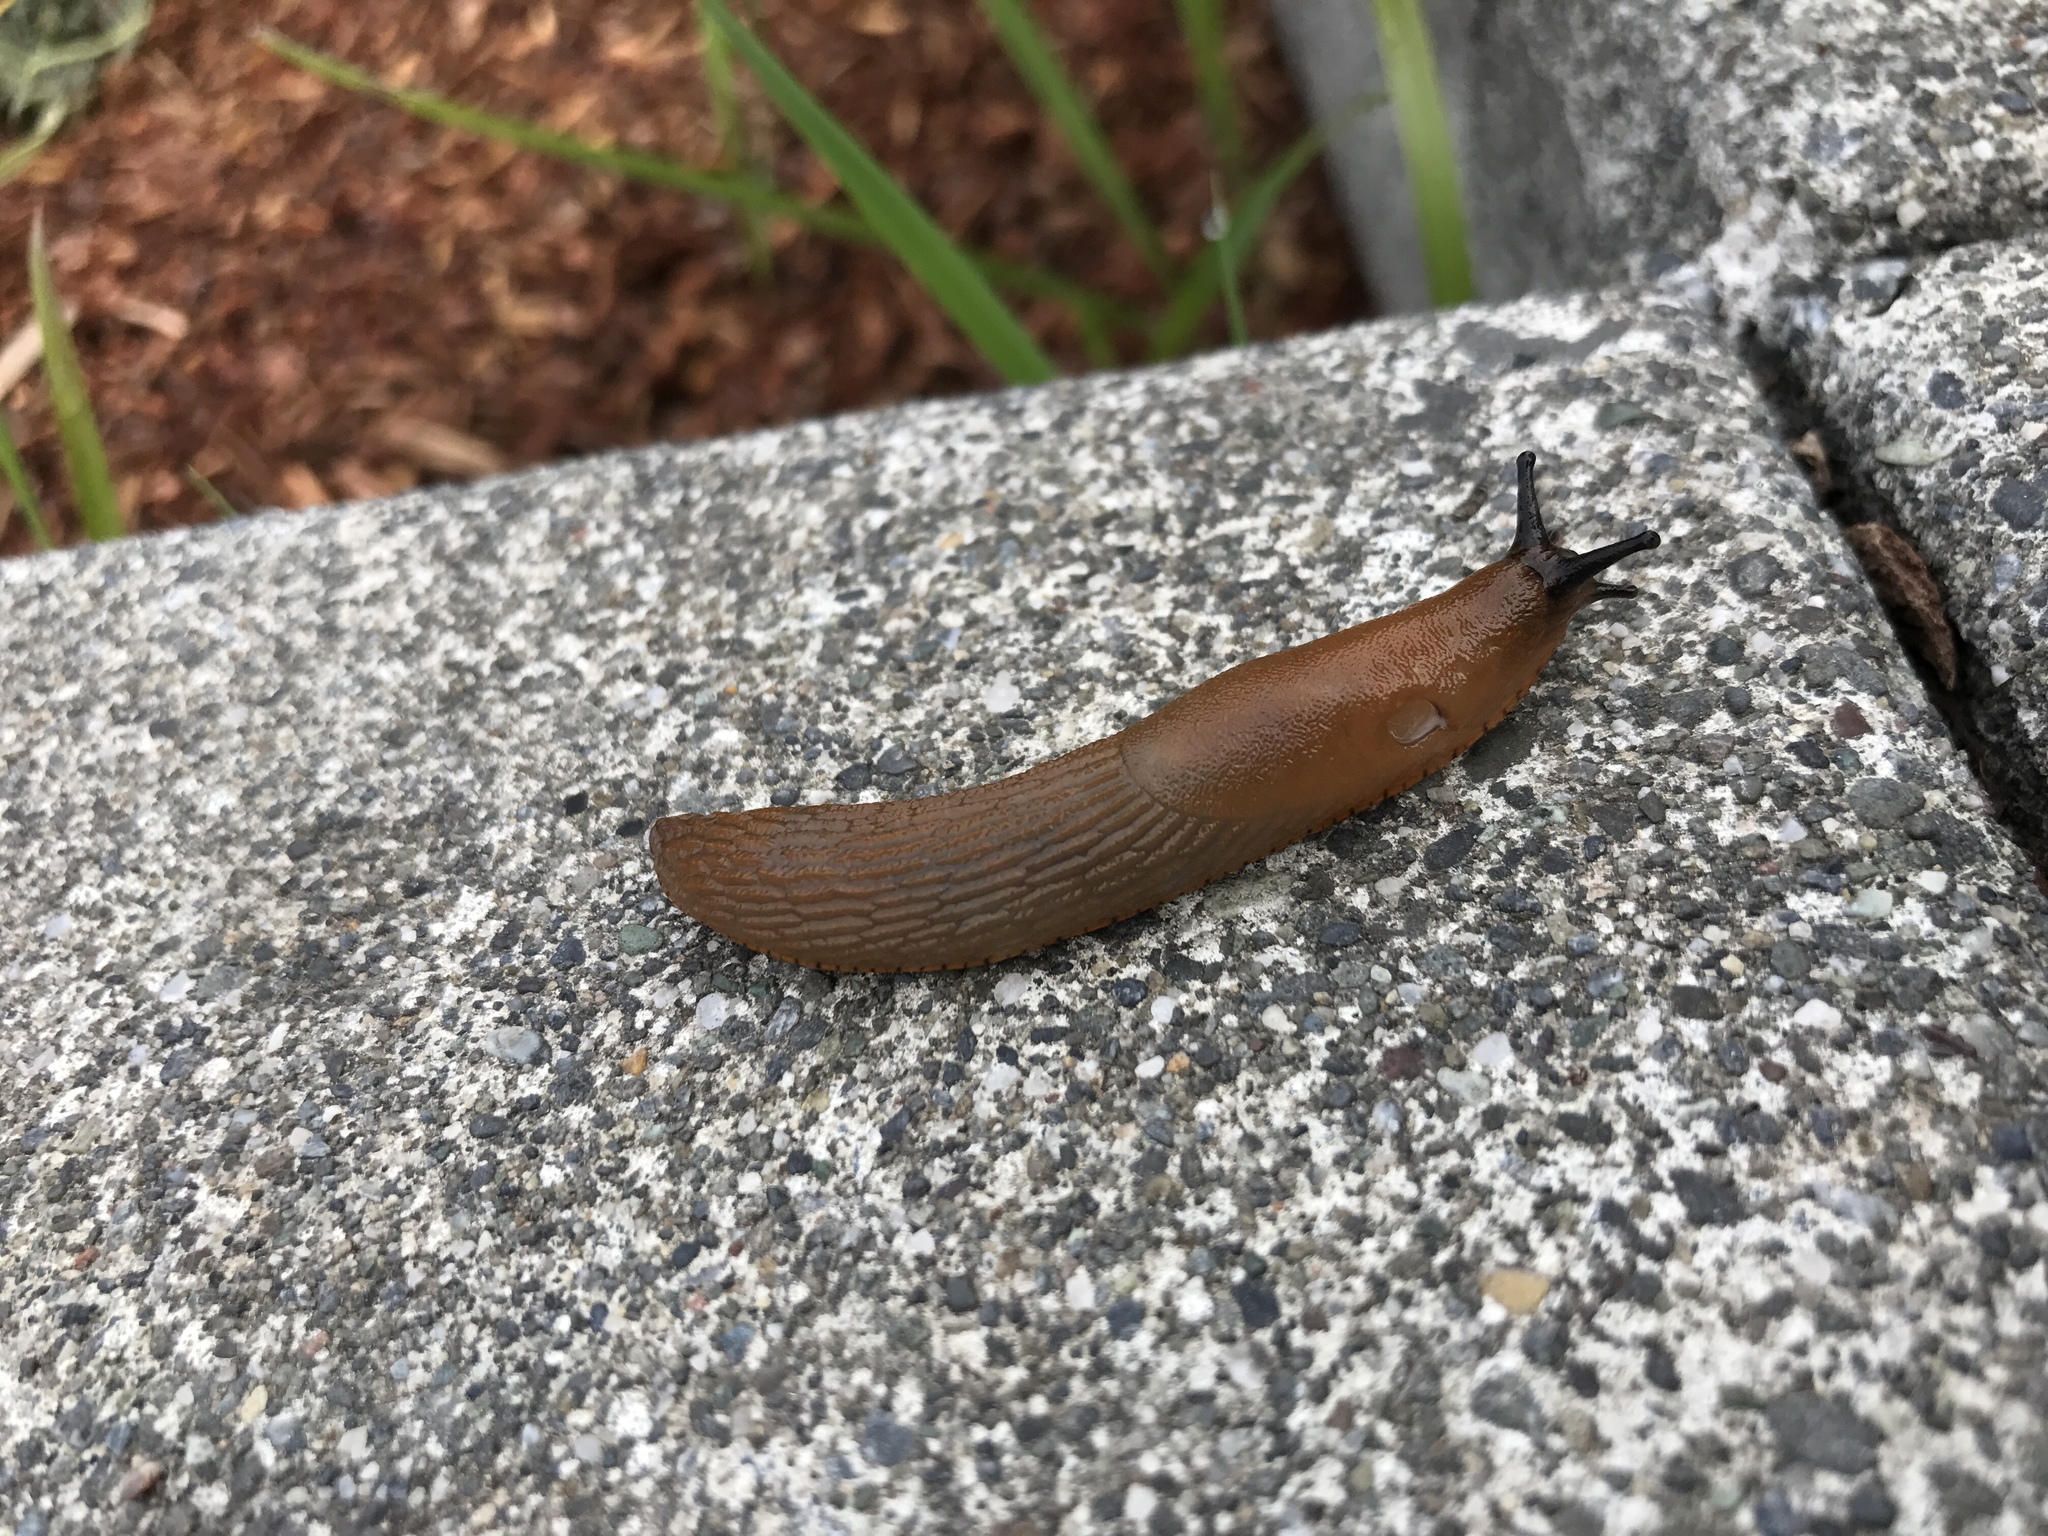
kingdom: Animalia
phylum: Mollusca
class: Gastropoda
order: Stylommatophora
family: Arionidae
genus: Arion
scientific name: Arion rufus
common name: Chocolate arion
